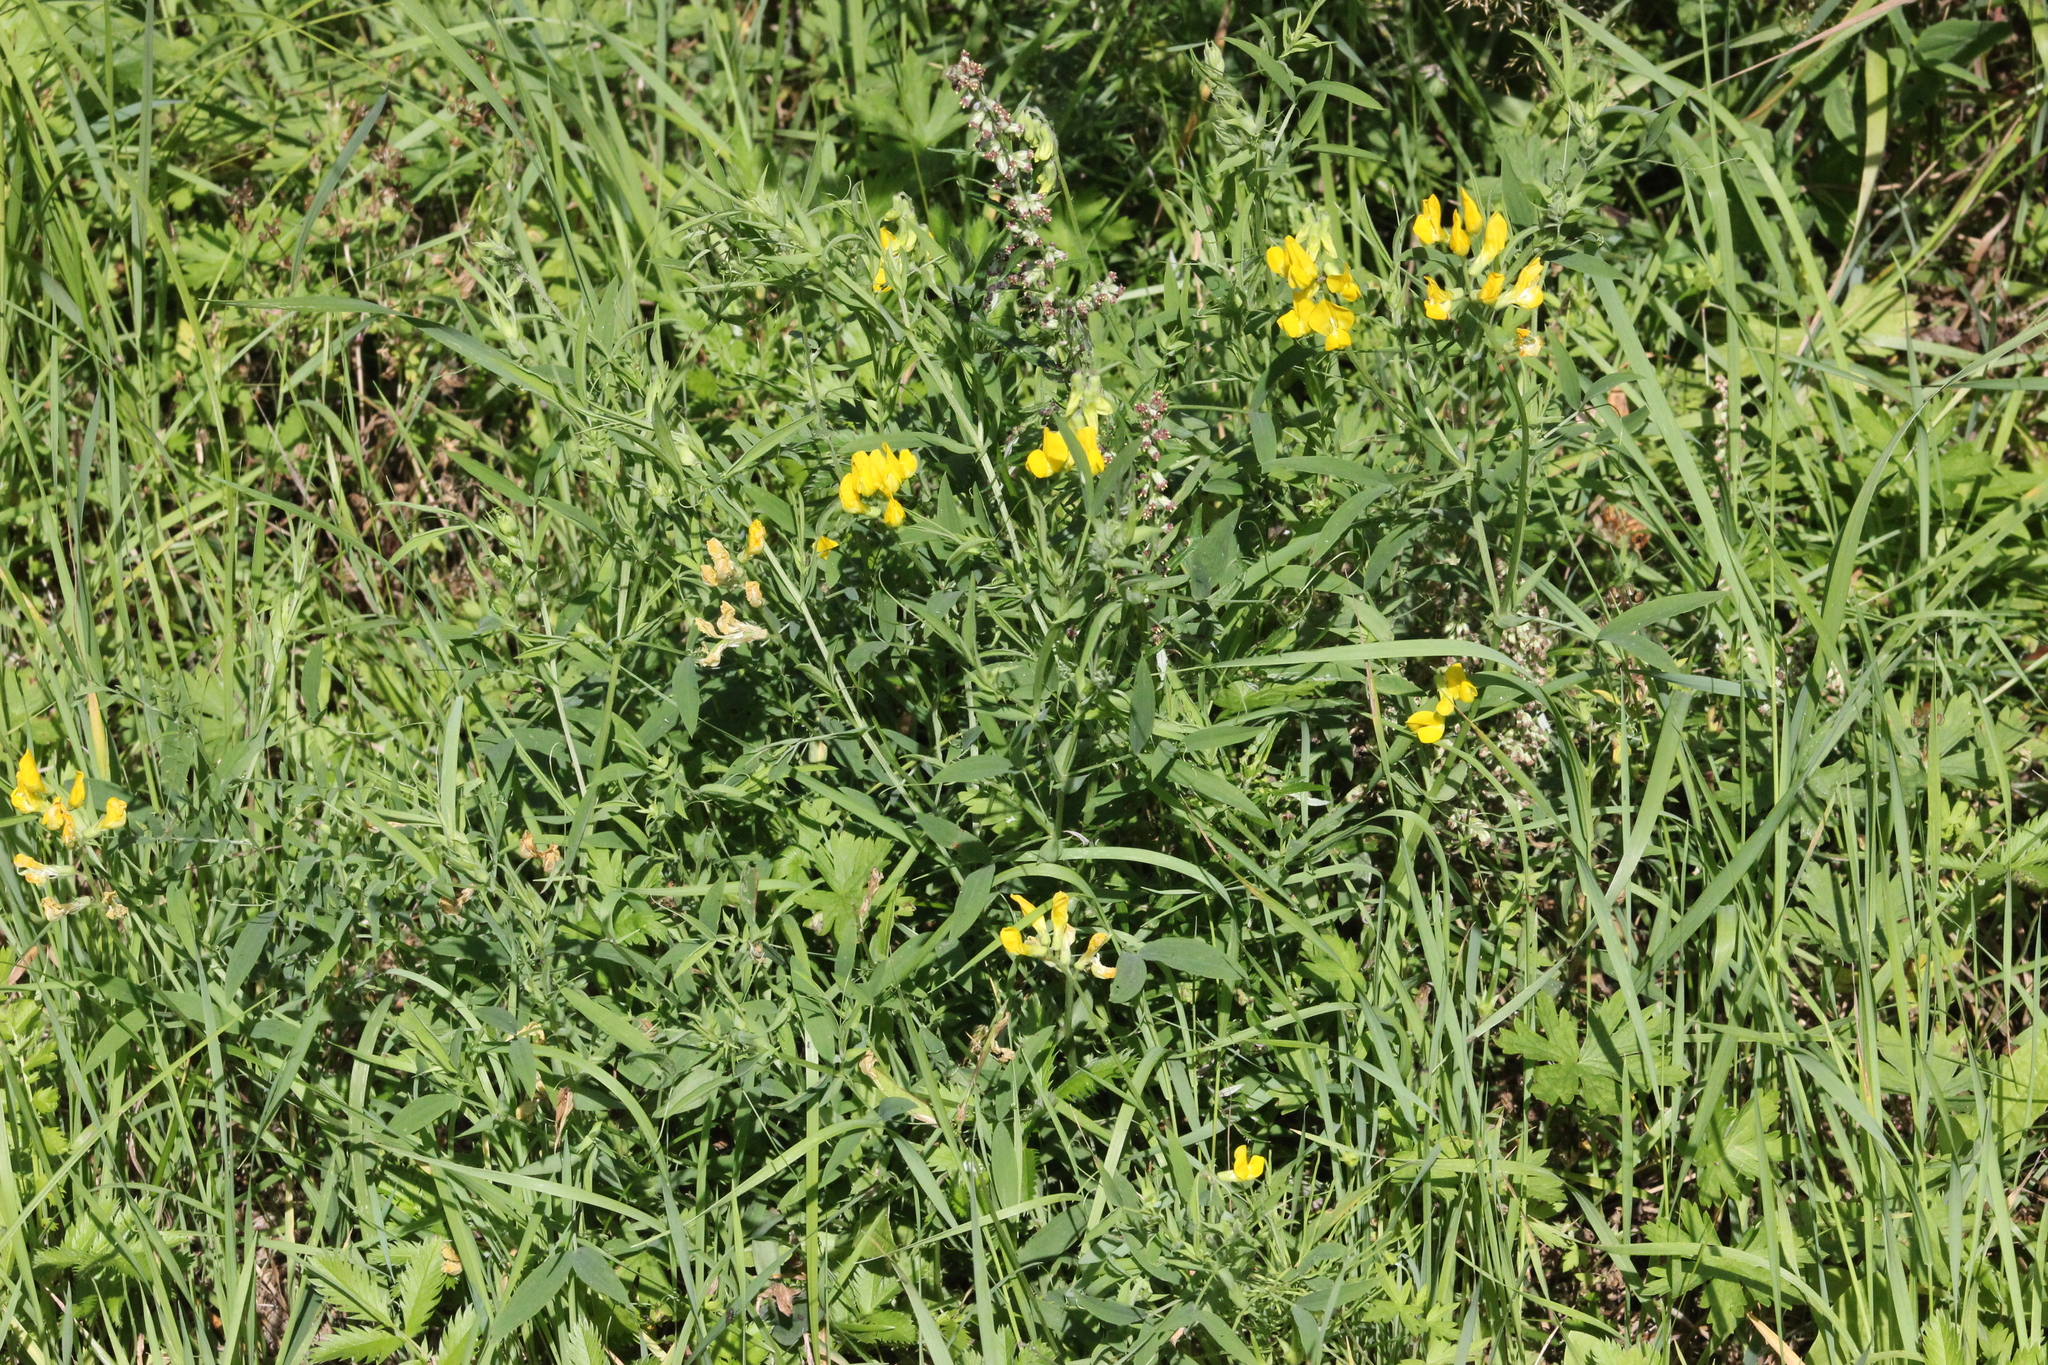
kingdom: Plantae
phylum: Tracheophyta
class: Magnoliopsida
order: Fabales
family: Fabaceae
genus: Lathyrus
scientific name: Lathyrus pratensis
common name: Meadow vetchling
